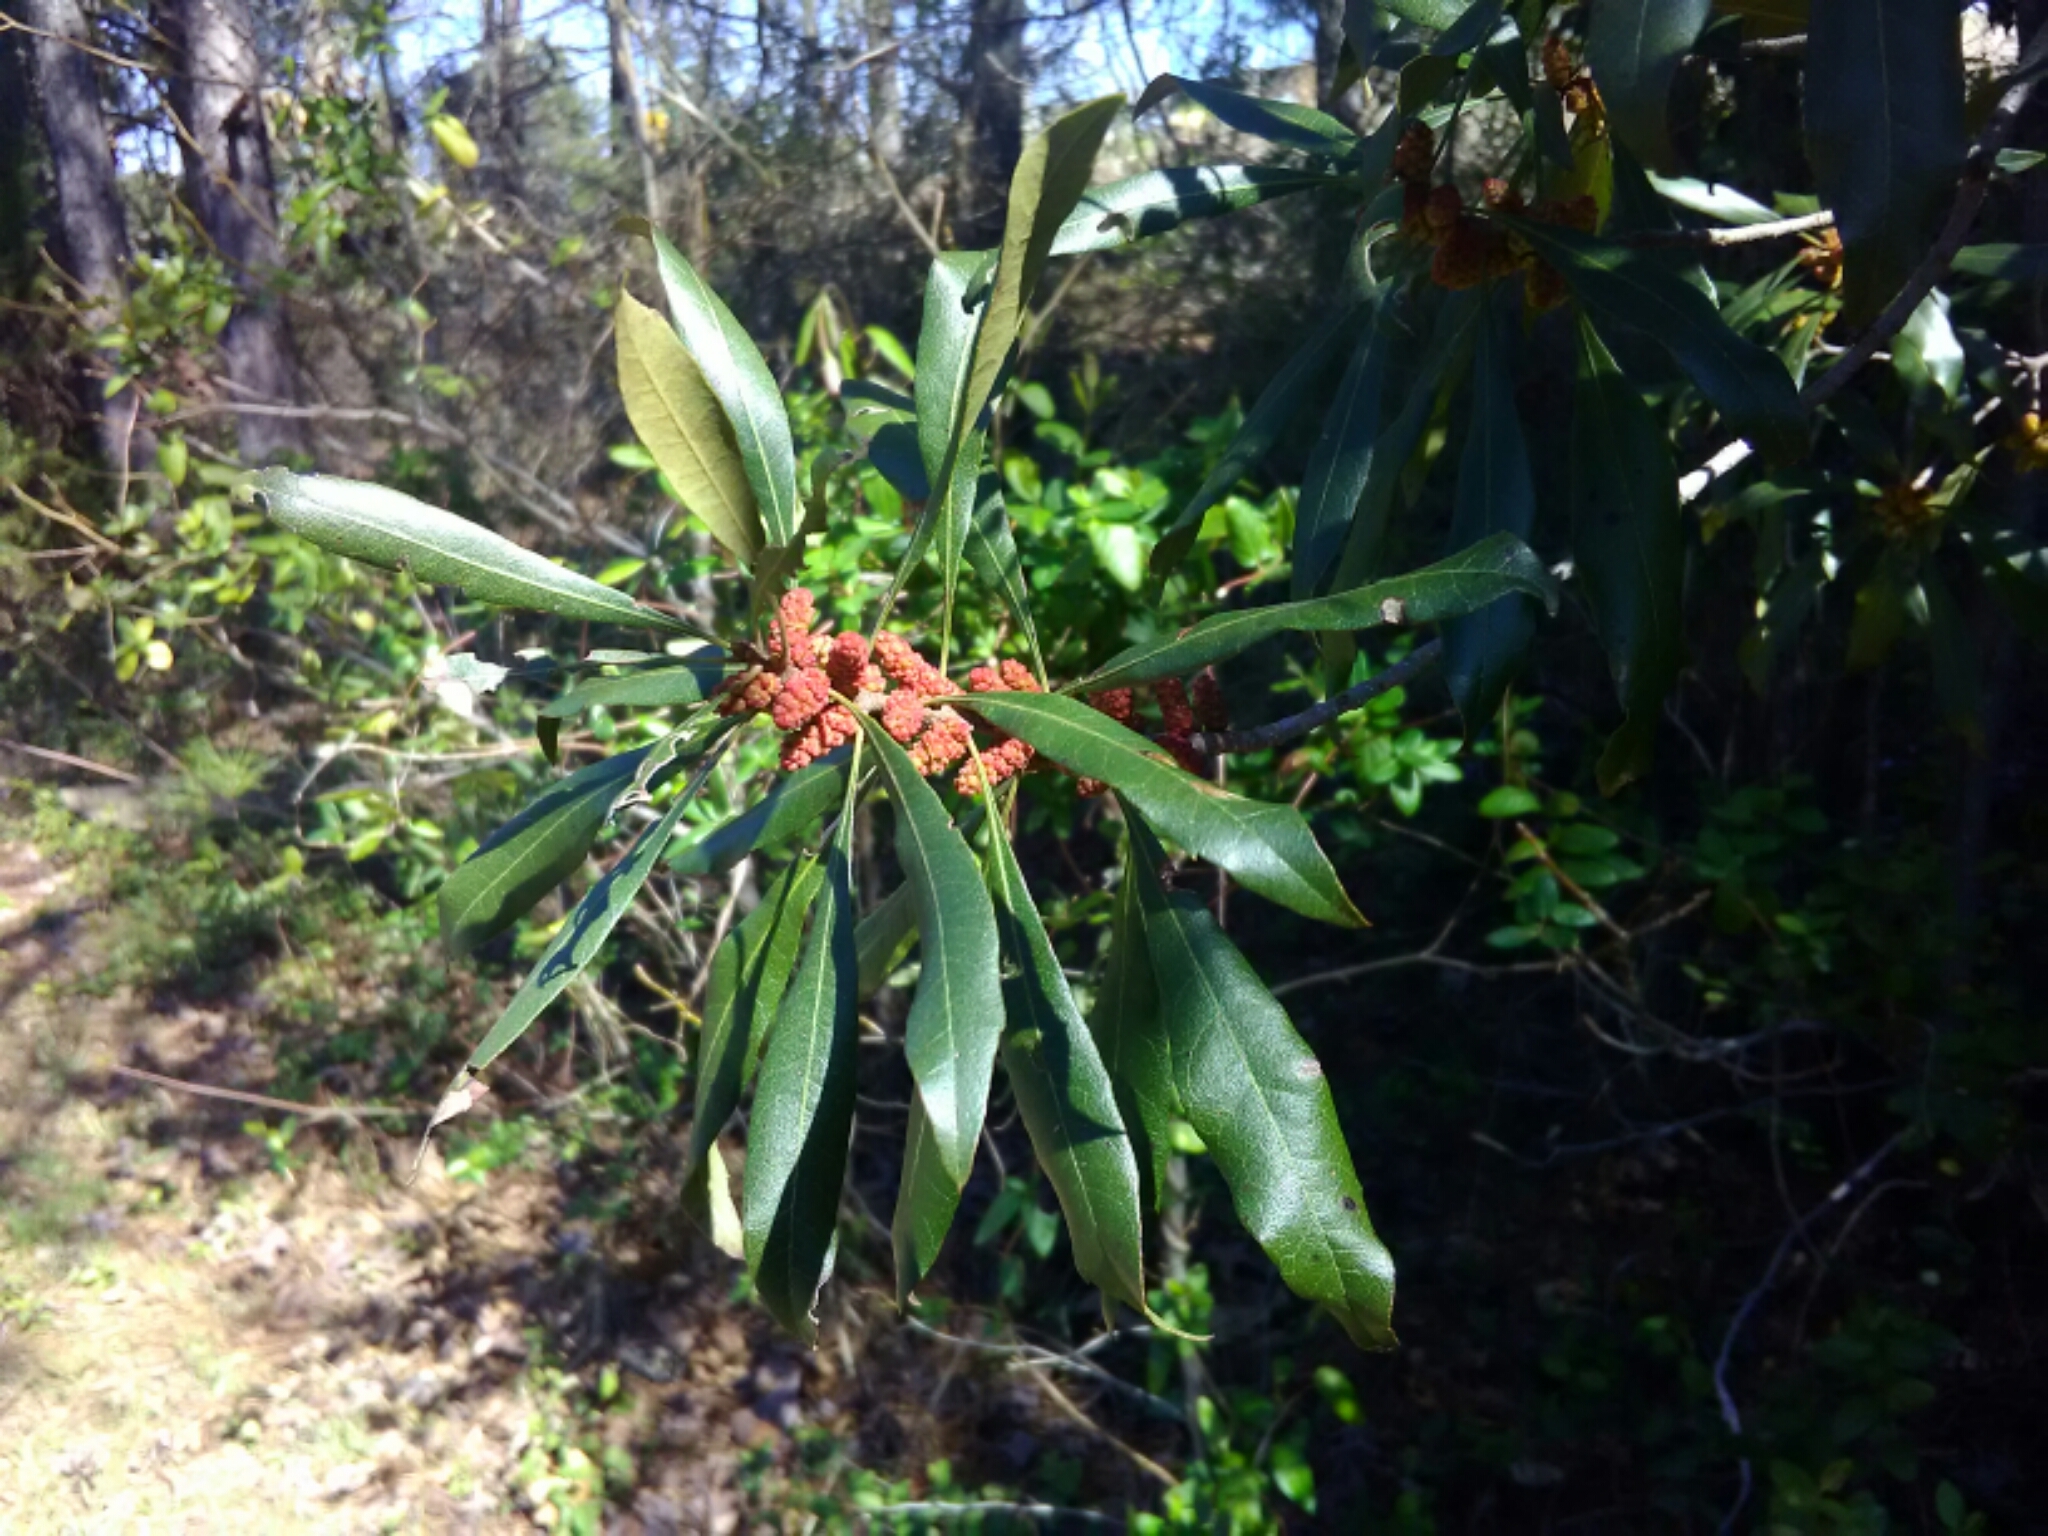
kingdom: Plantae
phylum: Tracheophyta
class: Magnoliopsida
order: Fagales
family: Myricaceae
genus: Morella
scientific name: Morella cerifera
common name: Wax myrtle
